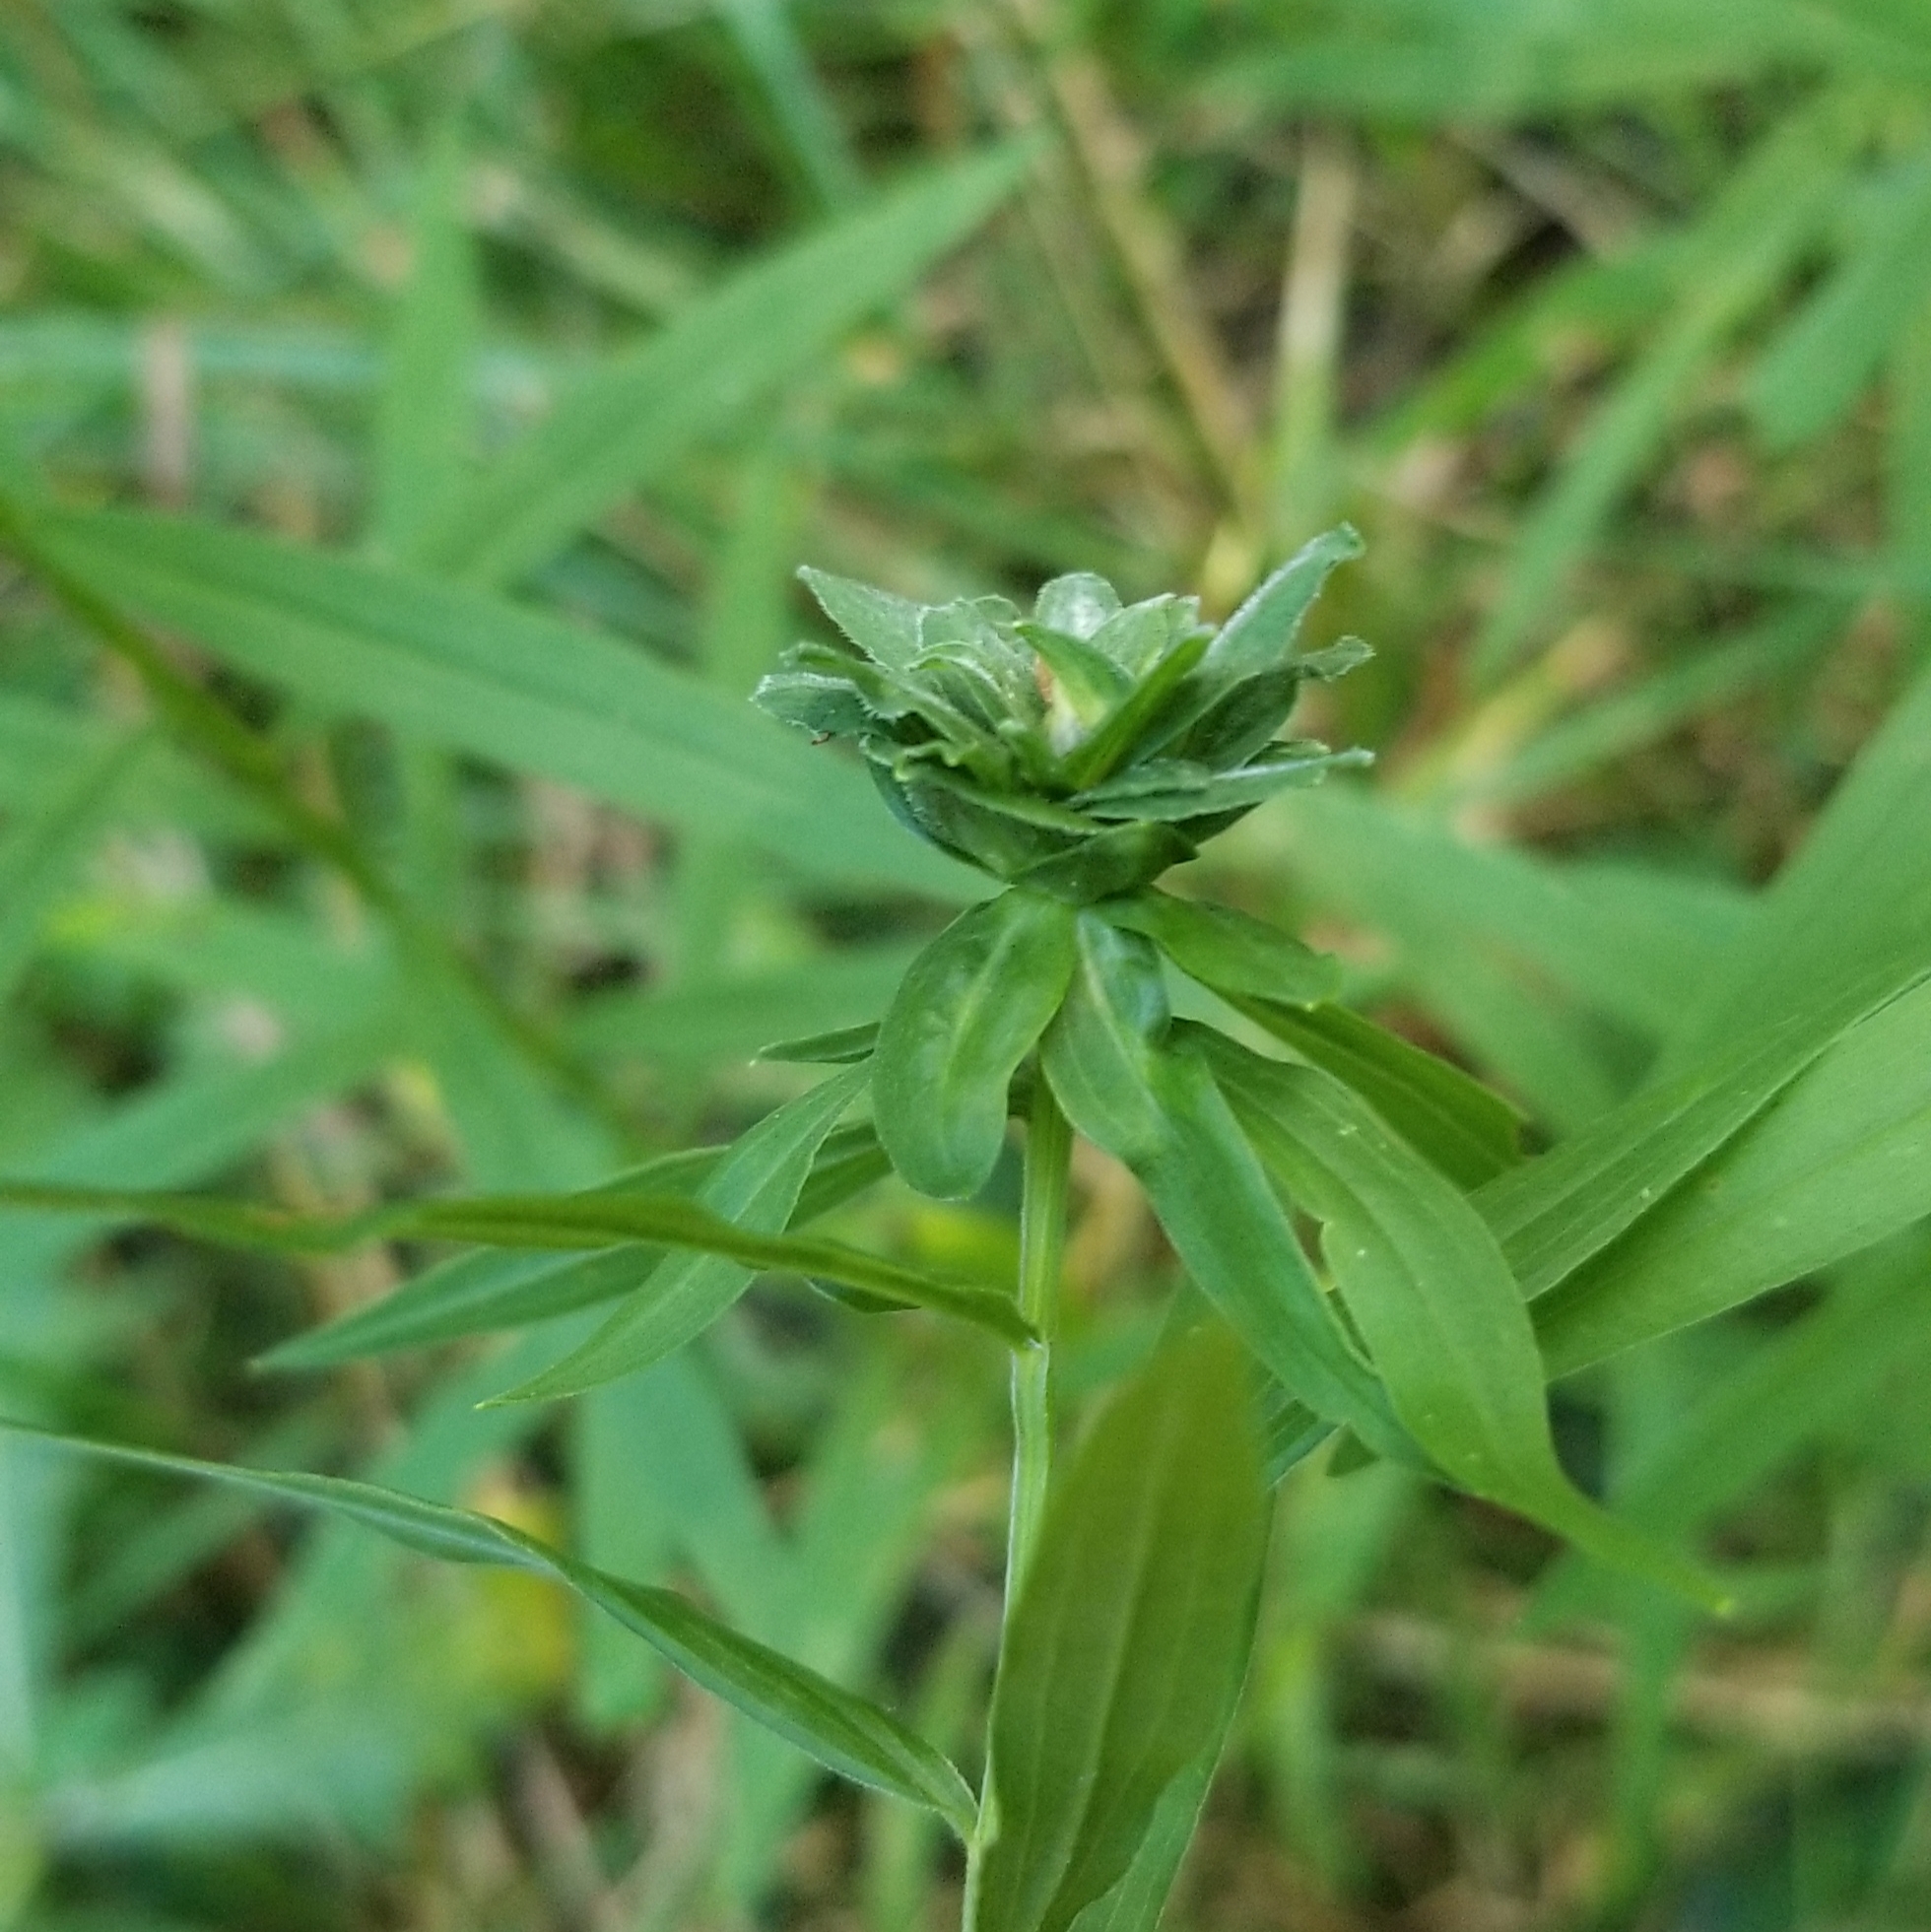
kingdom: Animalia
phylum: Arthropoda
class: Insecta
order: Diptera
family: Cecidomyiidae
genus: Asphondylia
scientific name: Asphondylia pseudorosa
